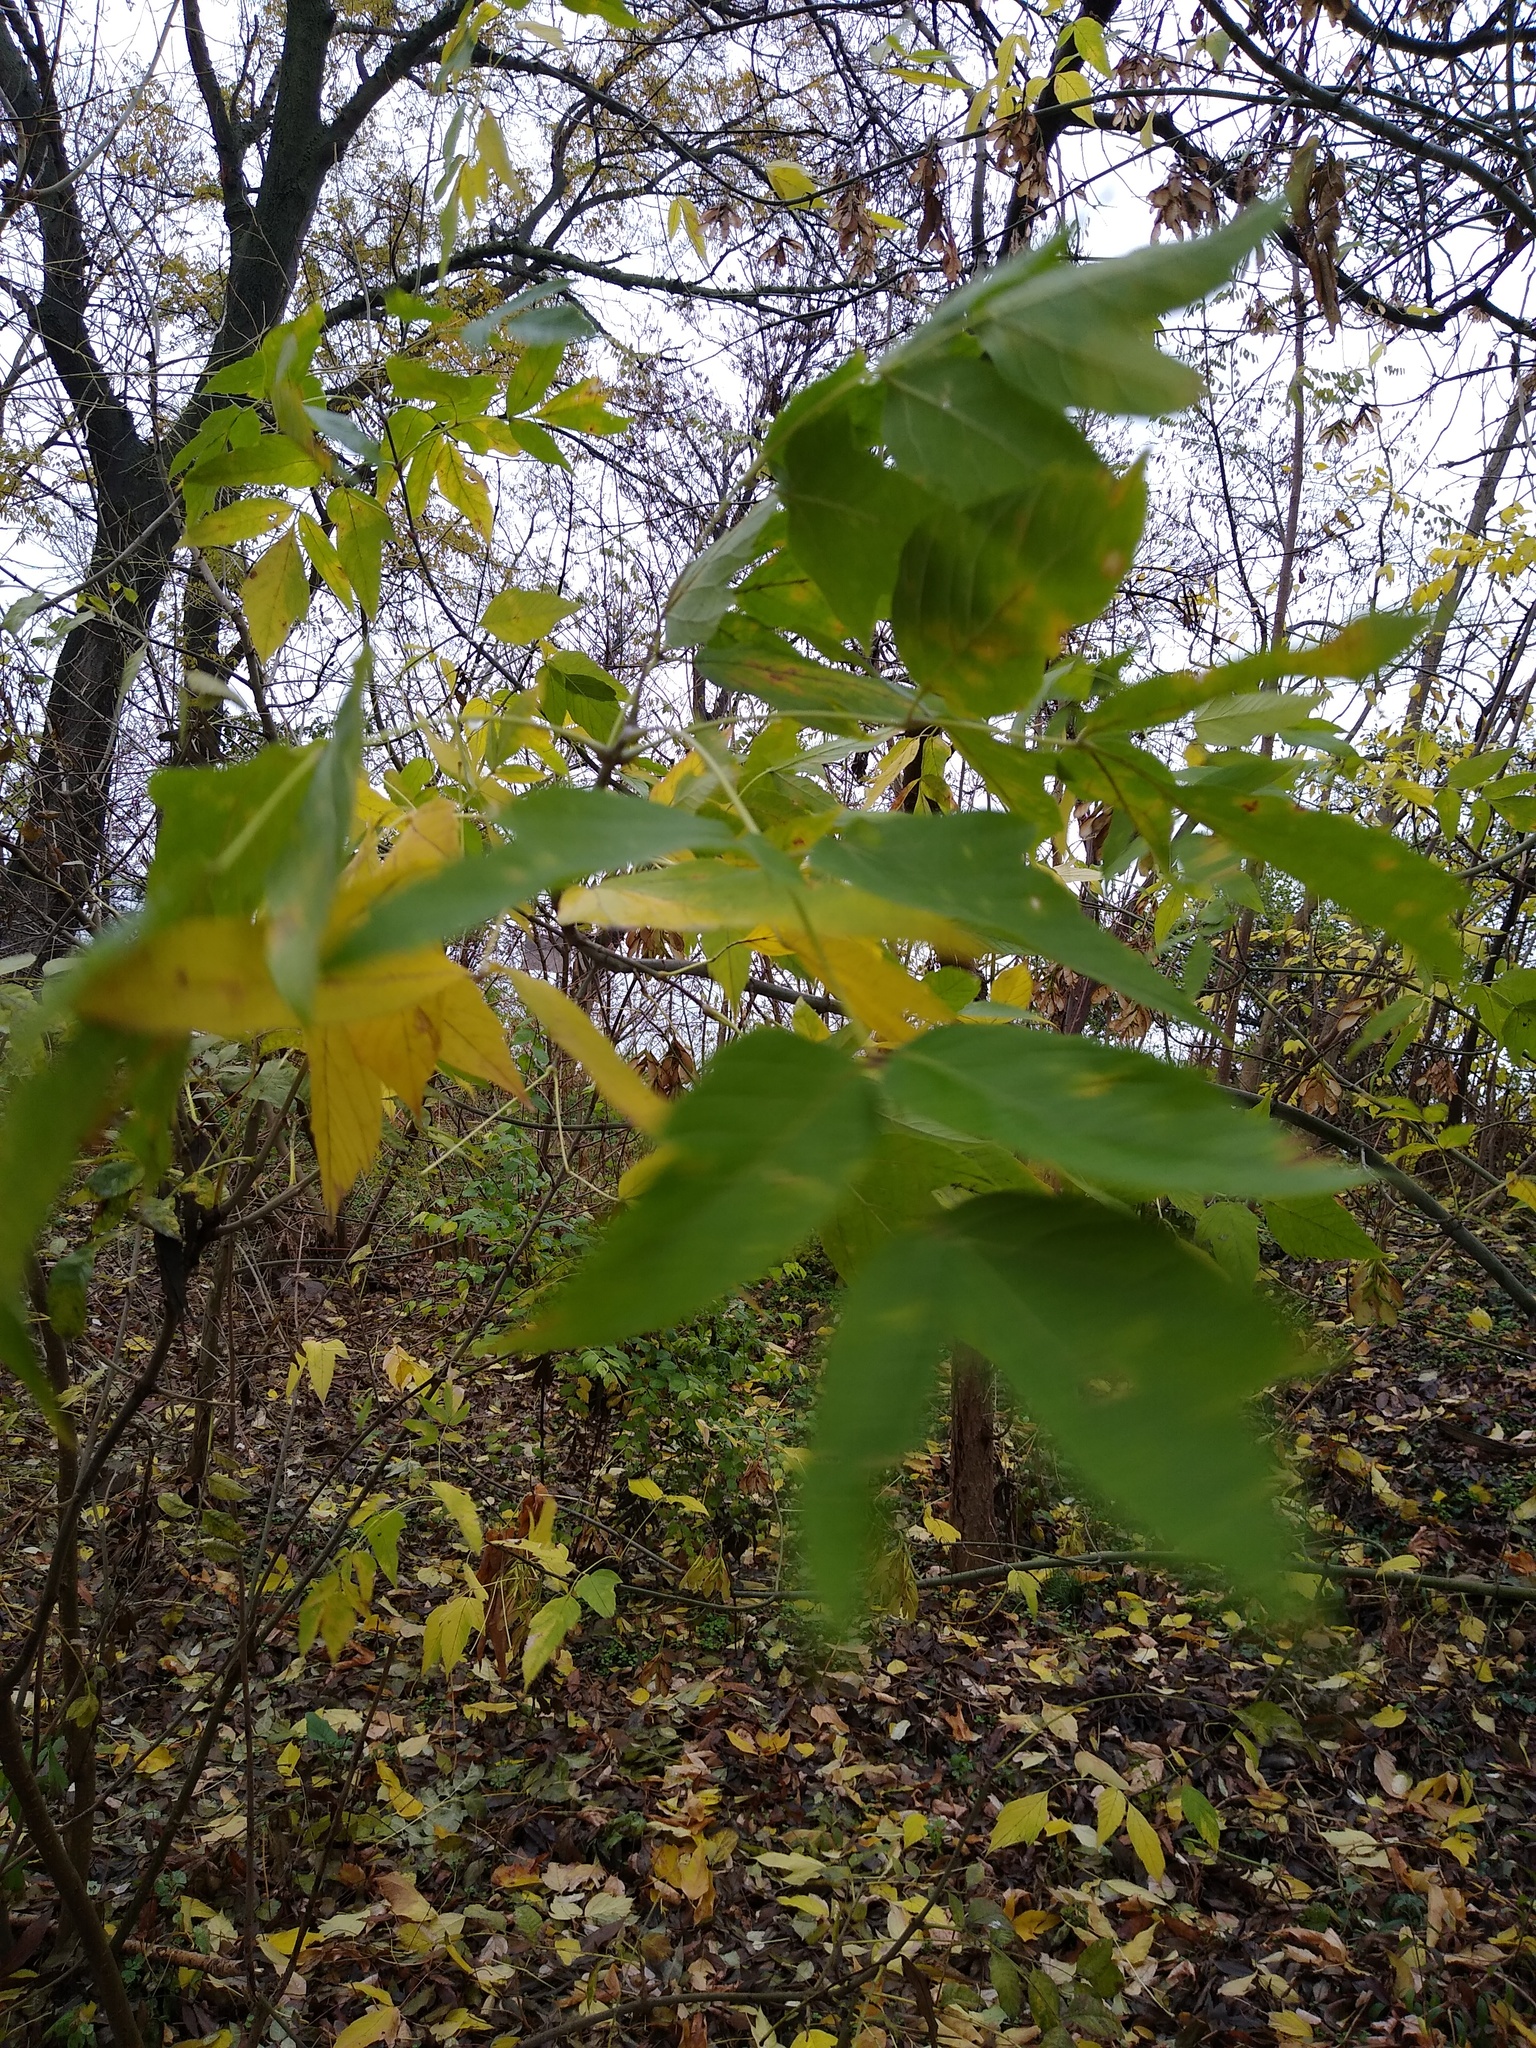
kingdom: Plantae
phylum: Tracheophyta
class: Magnoliopsida
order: Sapindales
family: Sapindaceae
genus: Acer
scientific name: Acer negundo
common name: Ashleaf maple
